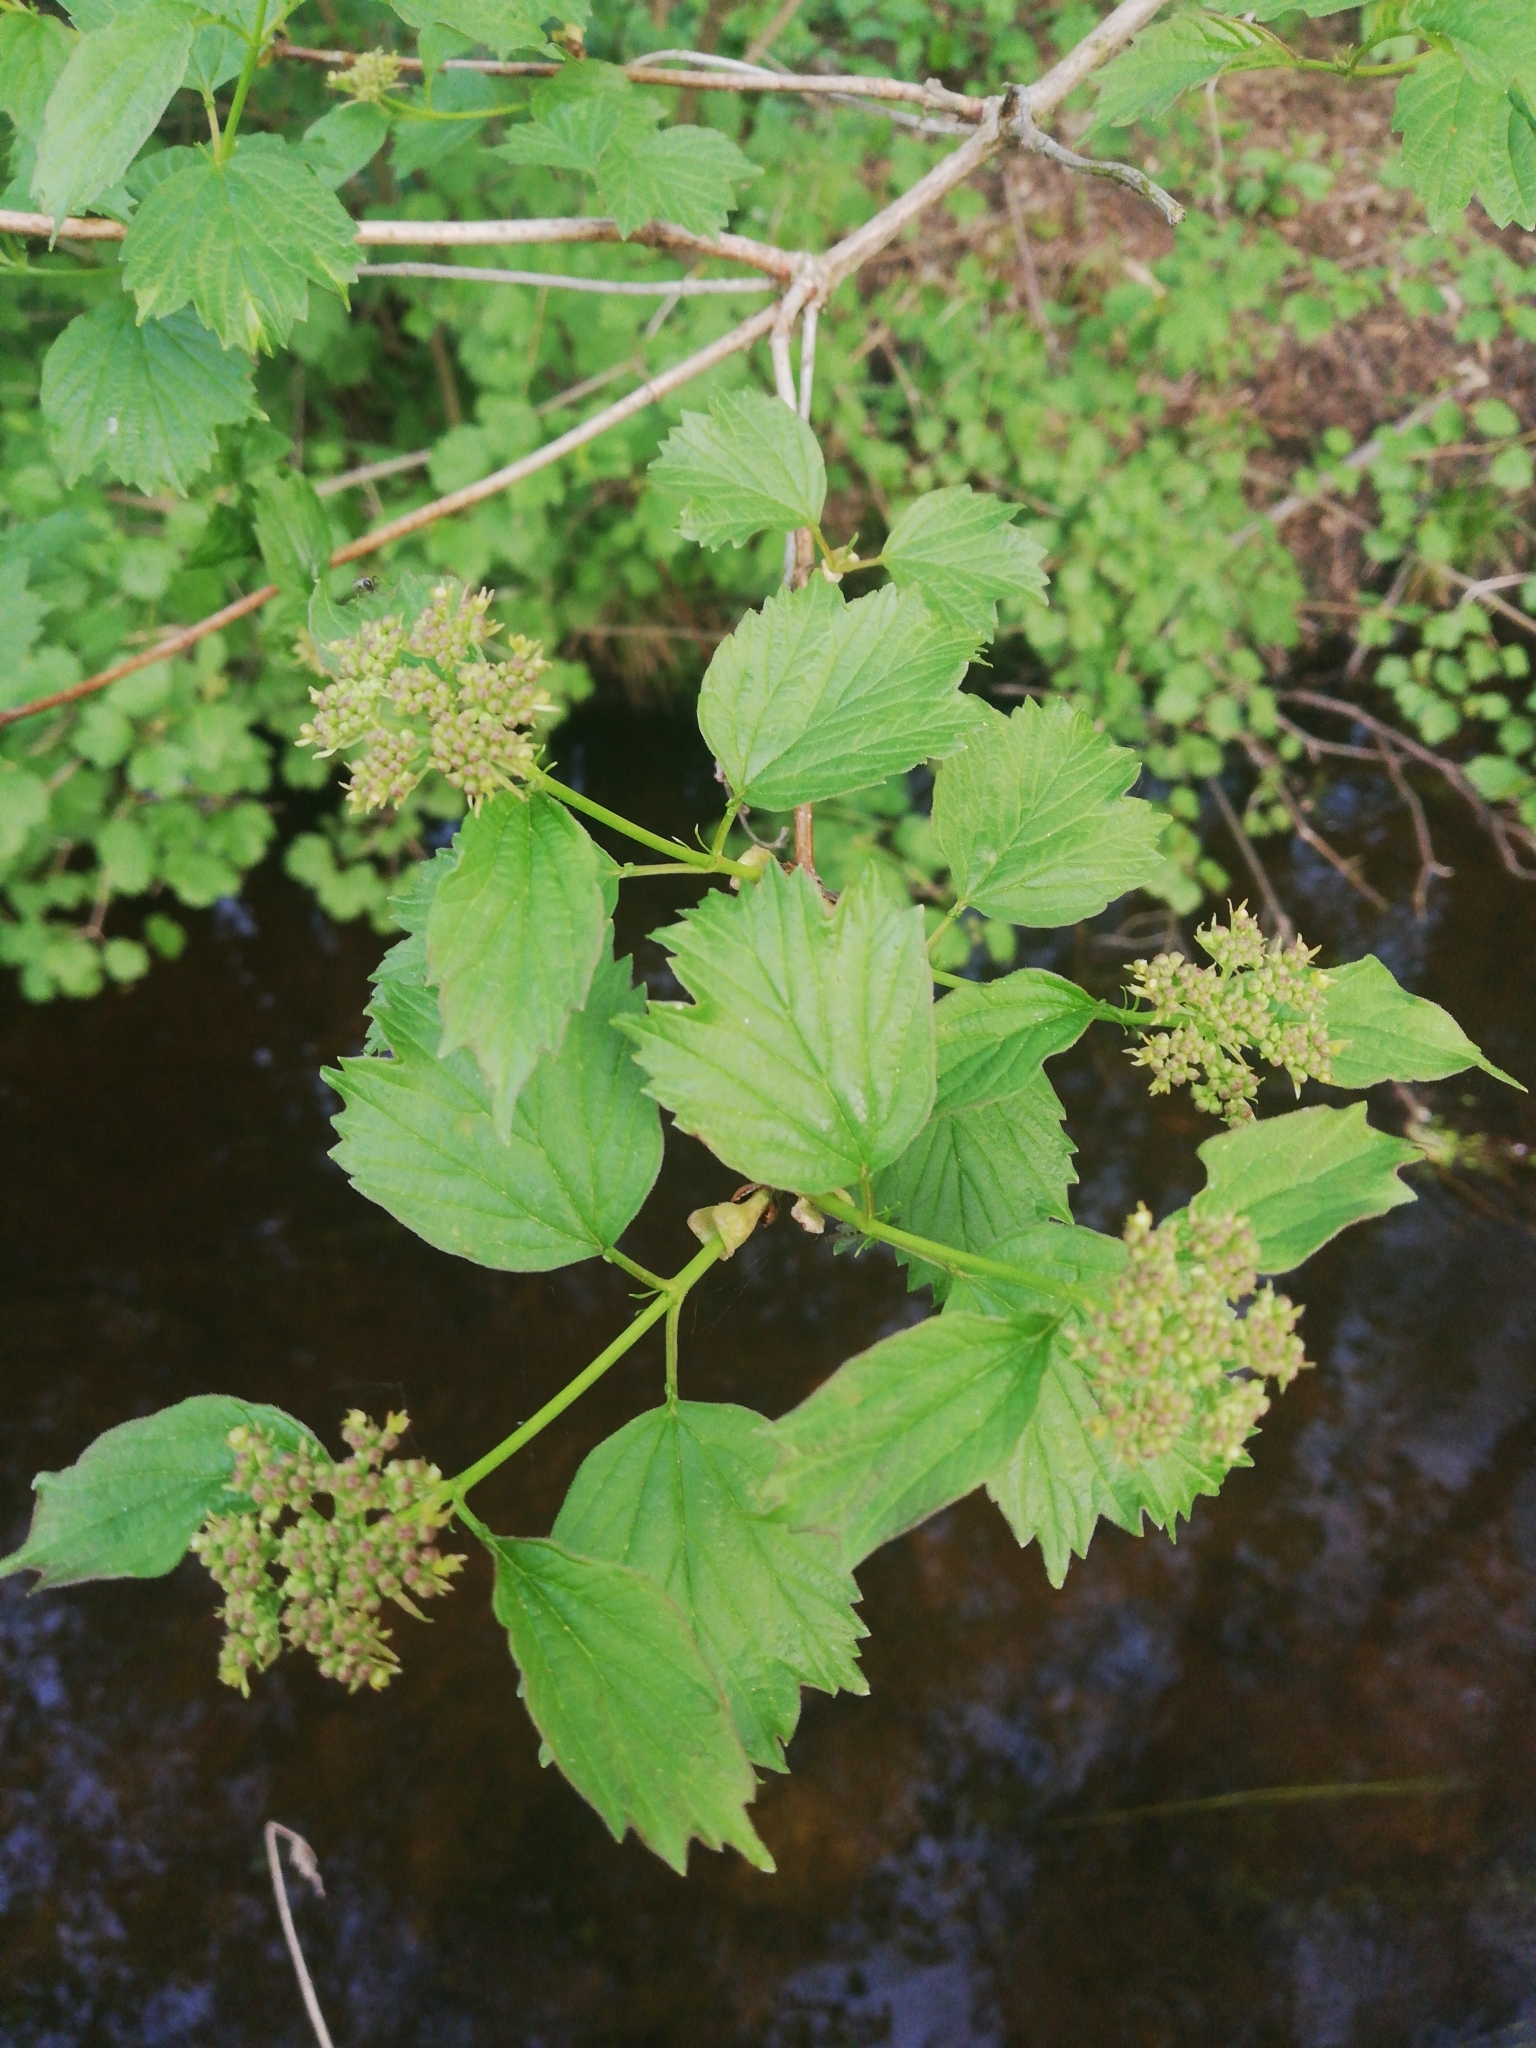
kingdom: Plantae
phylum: Tracheophyta
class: Magnoliopsida
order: Dipsacales
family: Viburnaceae
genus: Viburnum
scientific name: Viburnum opulus
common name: Guelder-rose
